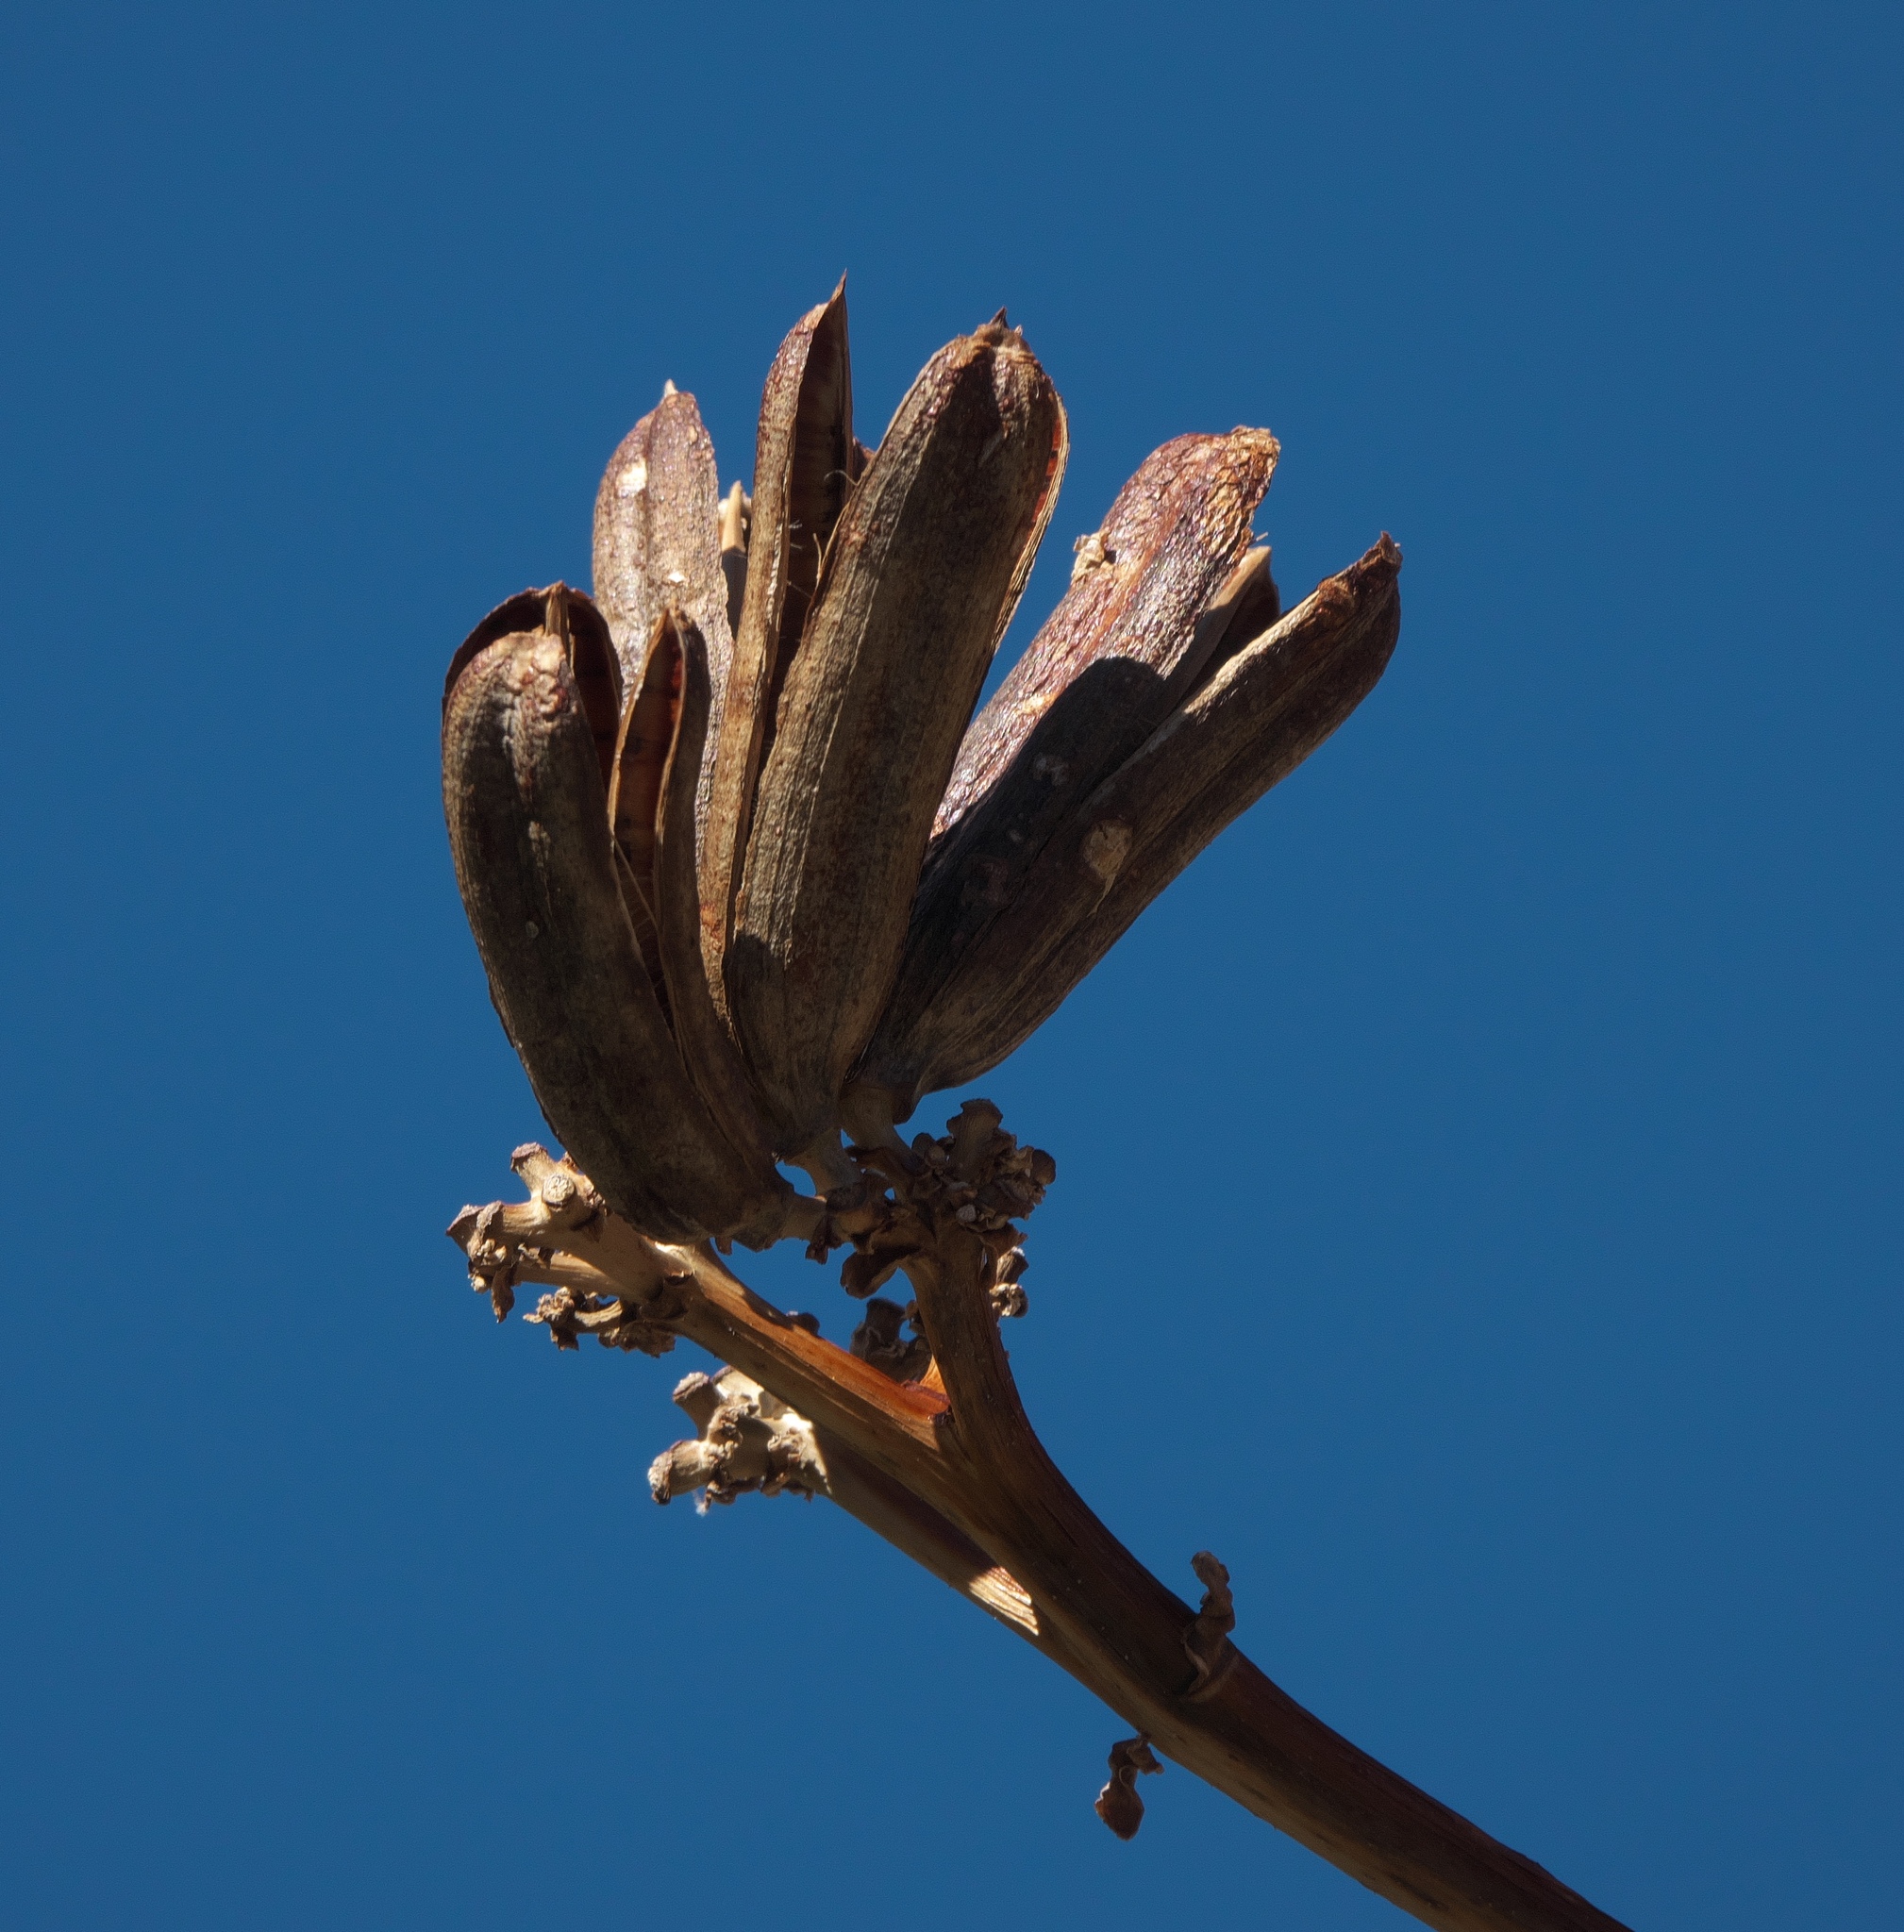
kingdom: Plantae
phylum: Tracheophyta
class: Liliopsida
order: Asparagales
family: Asparagaceae
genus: Agave
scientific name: Agave palmeri
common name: Palmer agave
